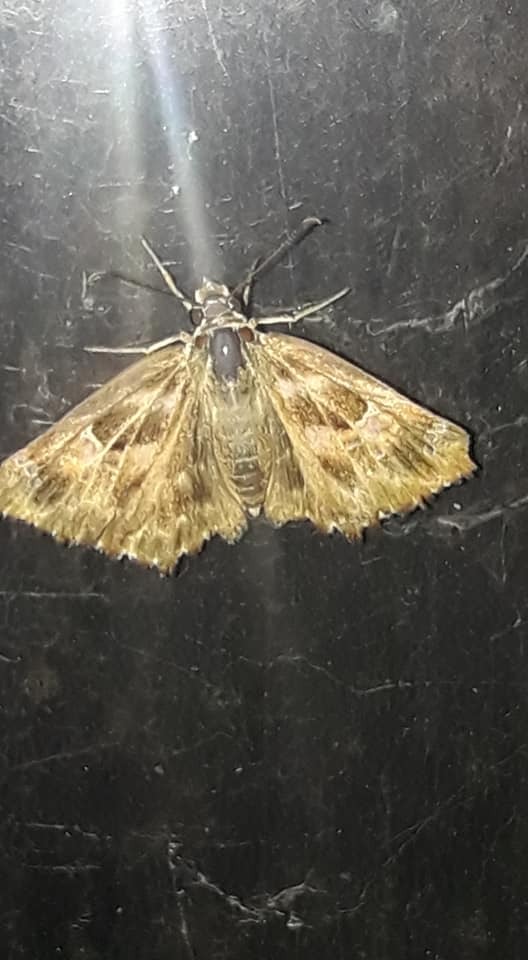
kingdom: Animalia
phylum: Arthropoda
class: Insecta
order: Lepidoptera
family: Hesperiidae
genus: Carcharodus
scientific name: Carcharodus alceae
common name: Mallow skipper
